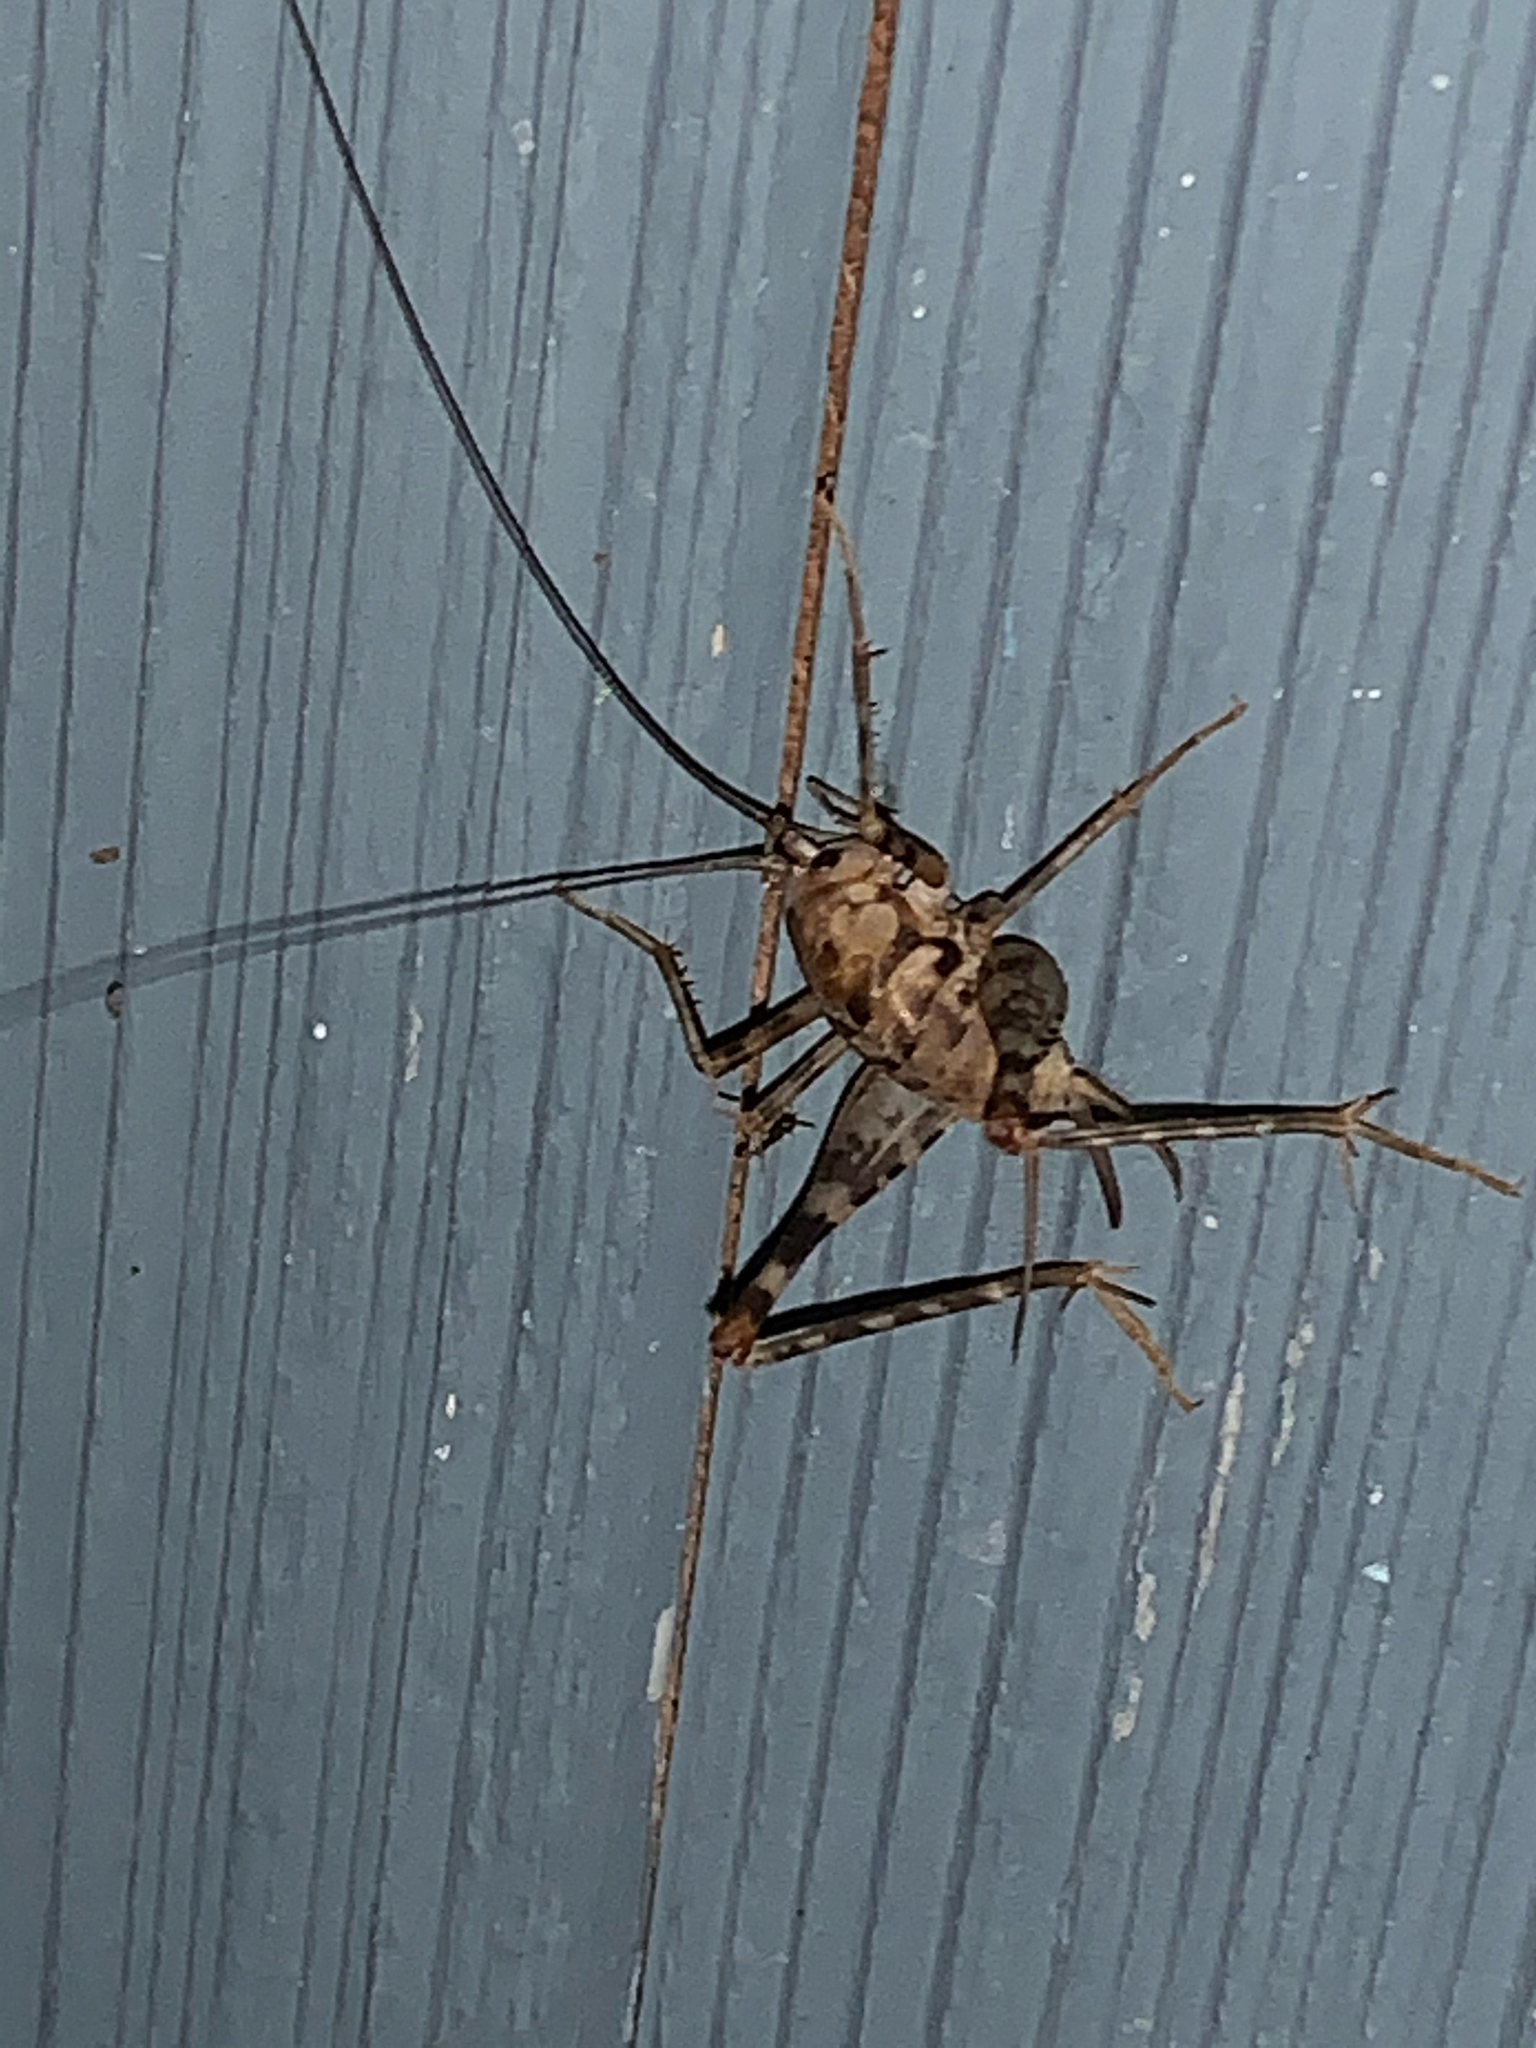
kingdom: Animalia
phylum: Arthropoda
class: Insecta
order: Orthoptera
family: Rhaphidophoridae
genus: Tachycines
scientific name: Tachycines asynamorus
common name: Greenhouse camel cricket
